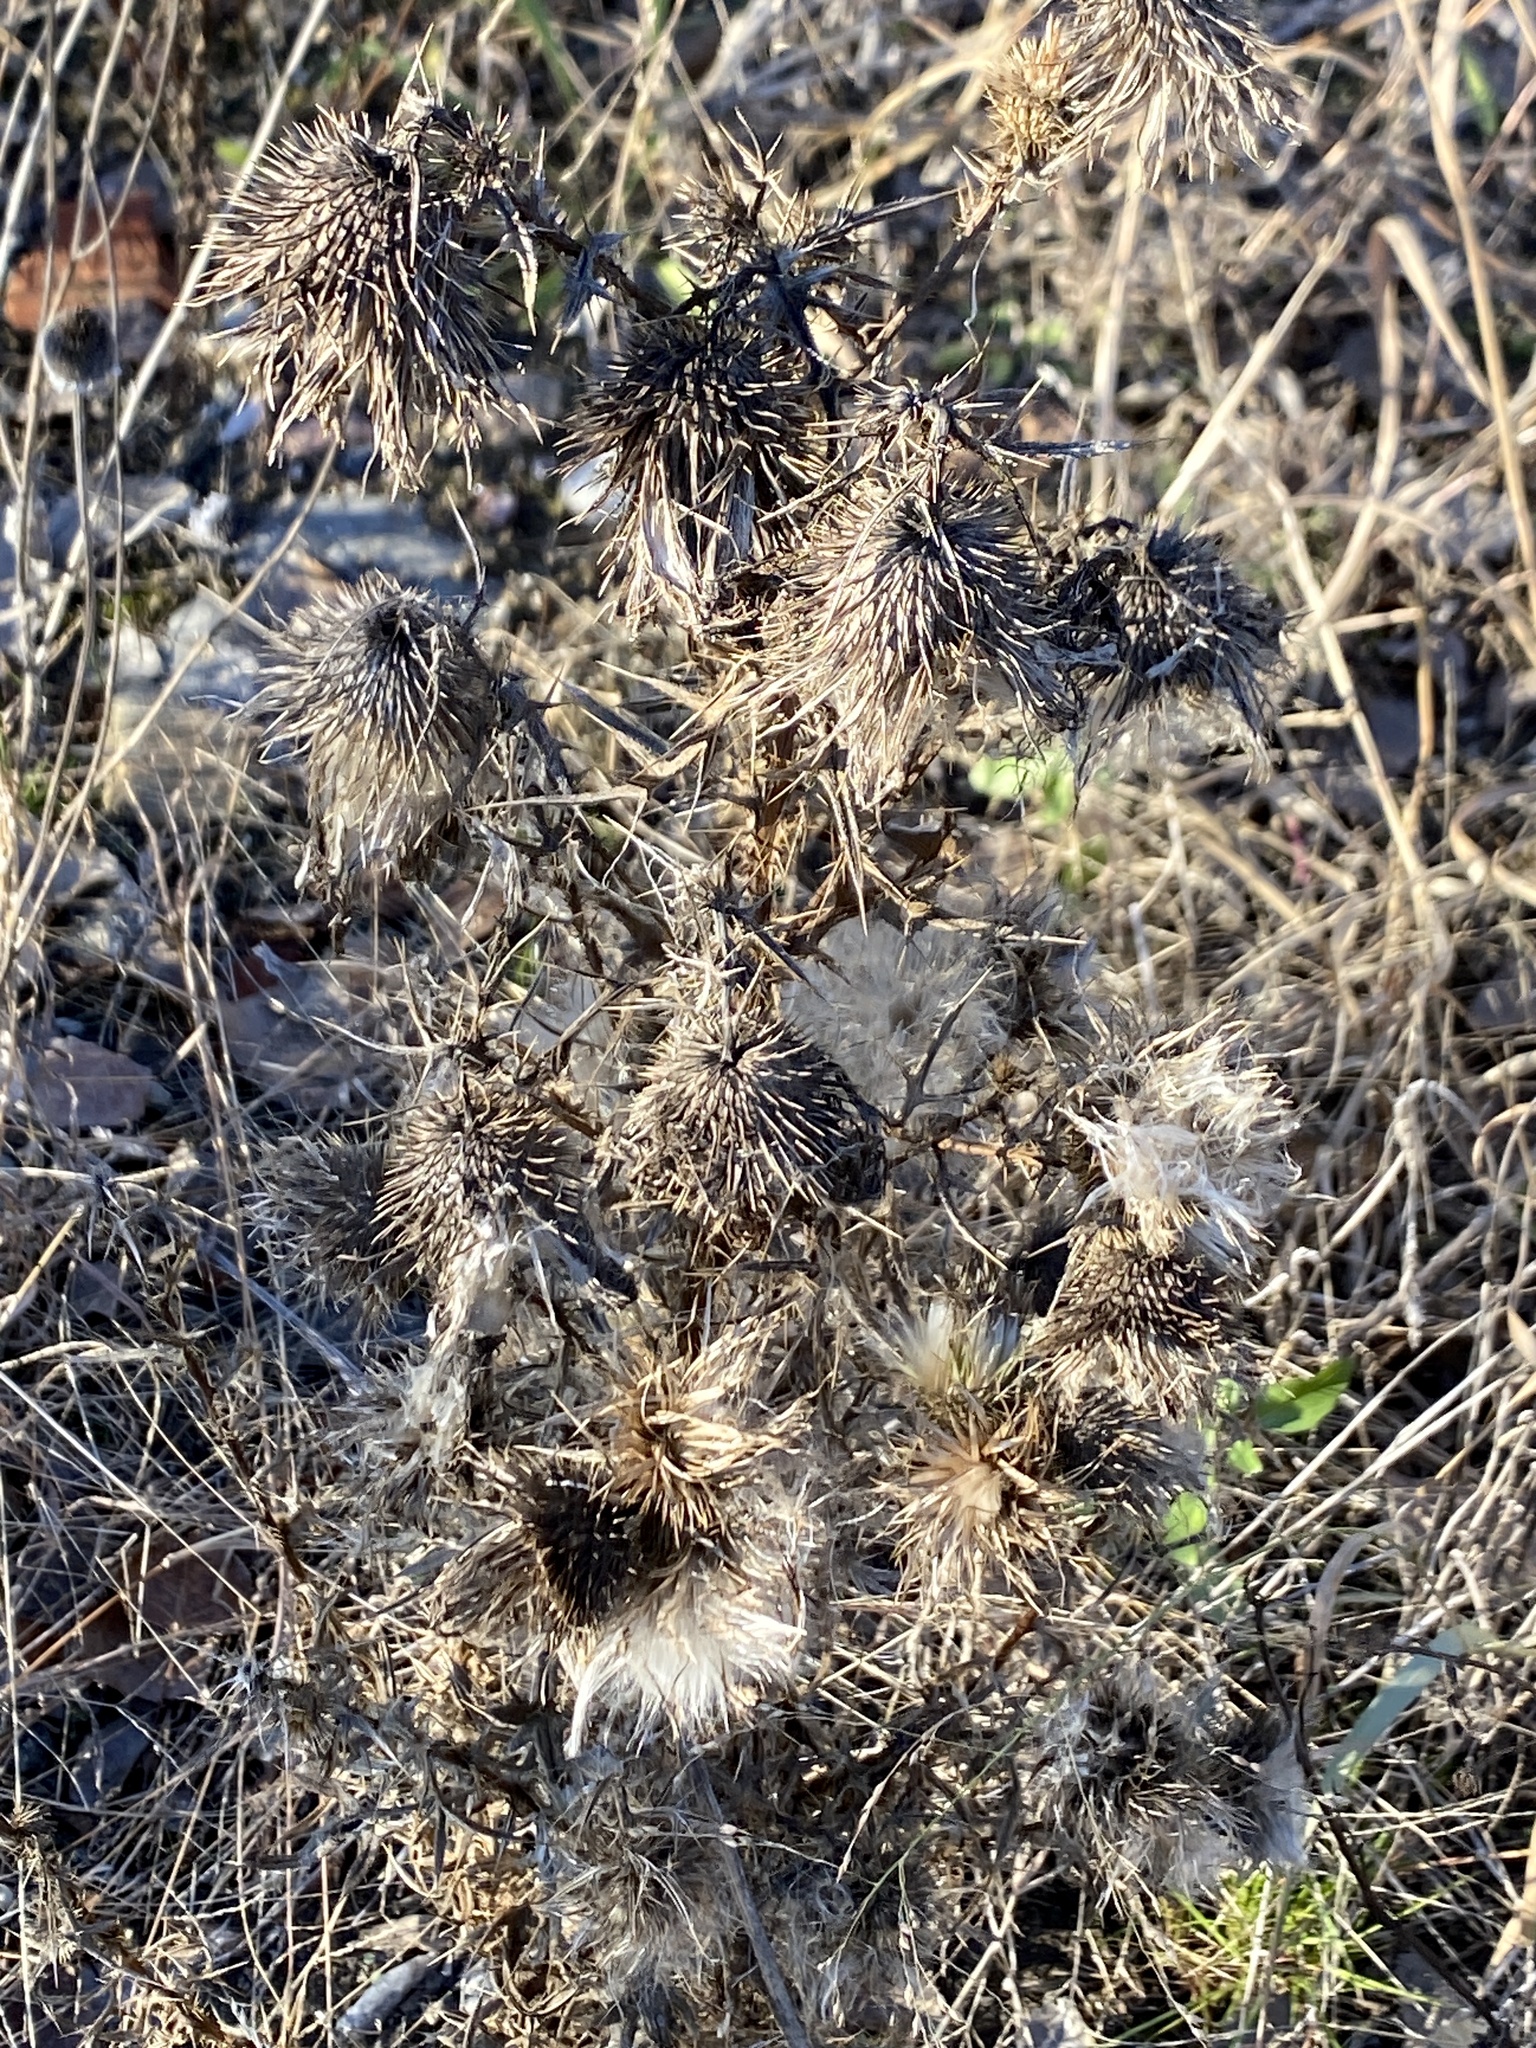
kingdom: Plantae
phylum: Tracheophyta
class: Magnoliopsida
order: Asterales
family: Asteraceae
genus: Cirsium
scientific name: Cirsium vulgare
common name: Bull thistle
